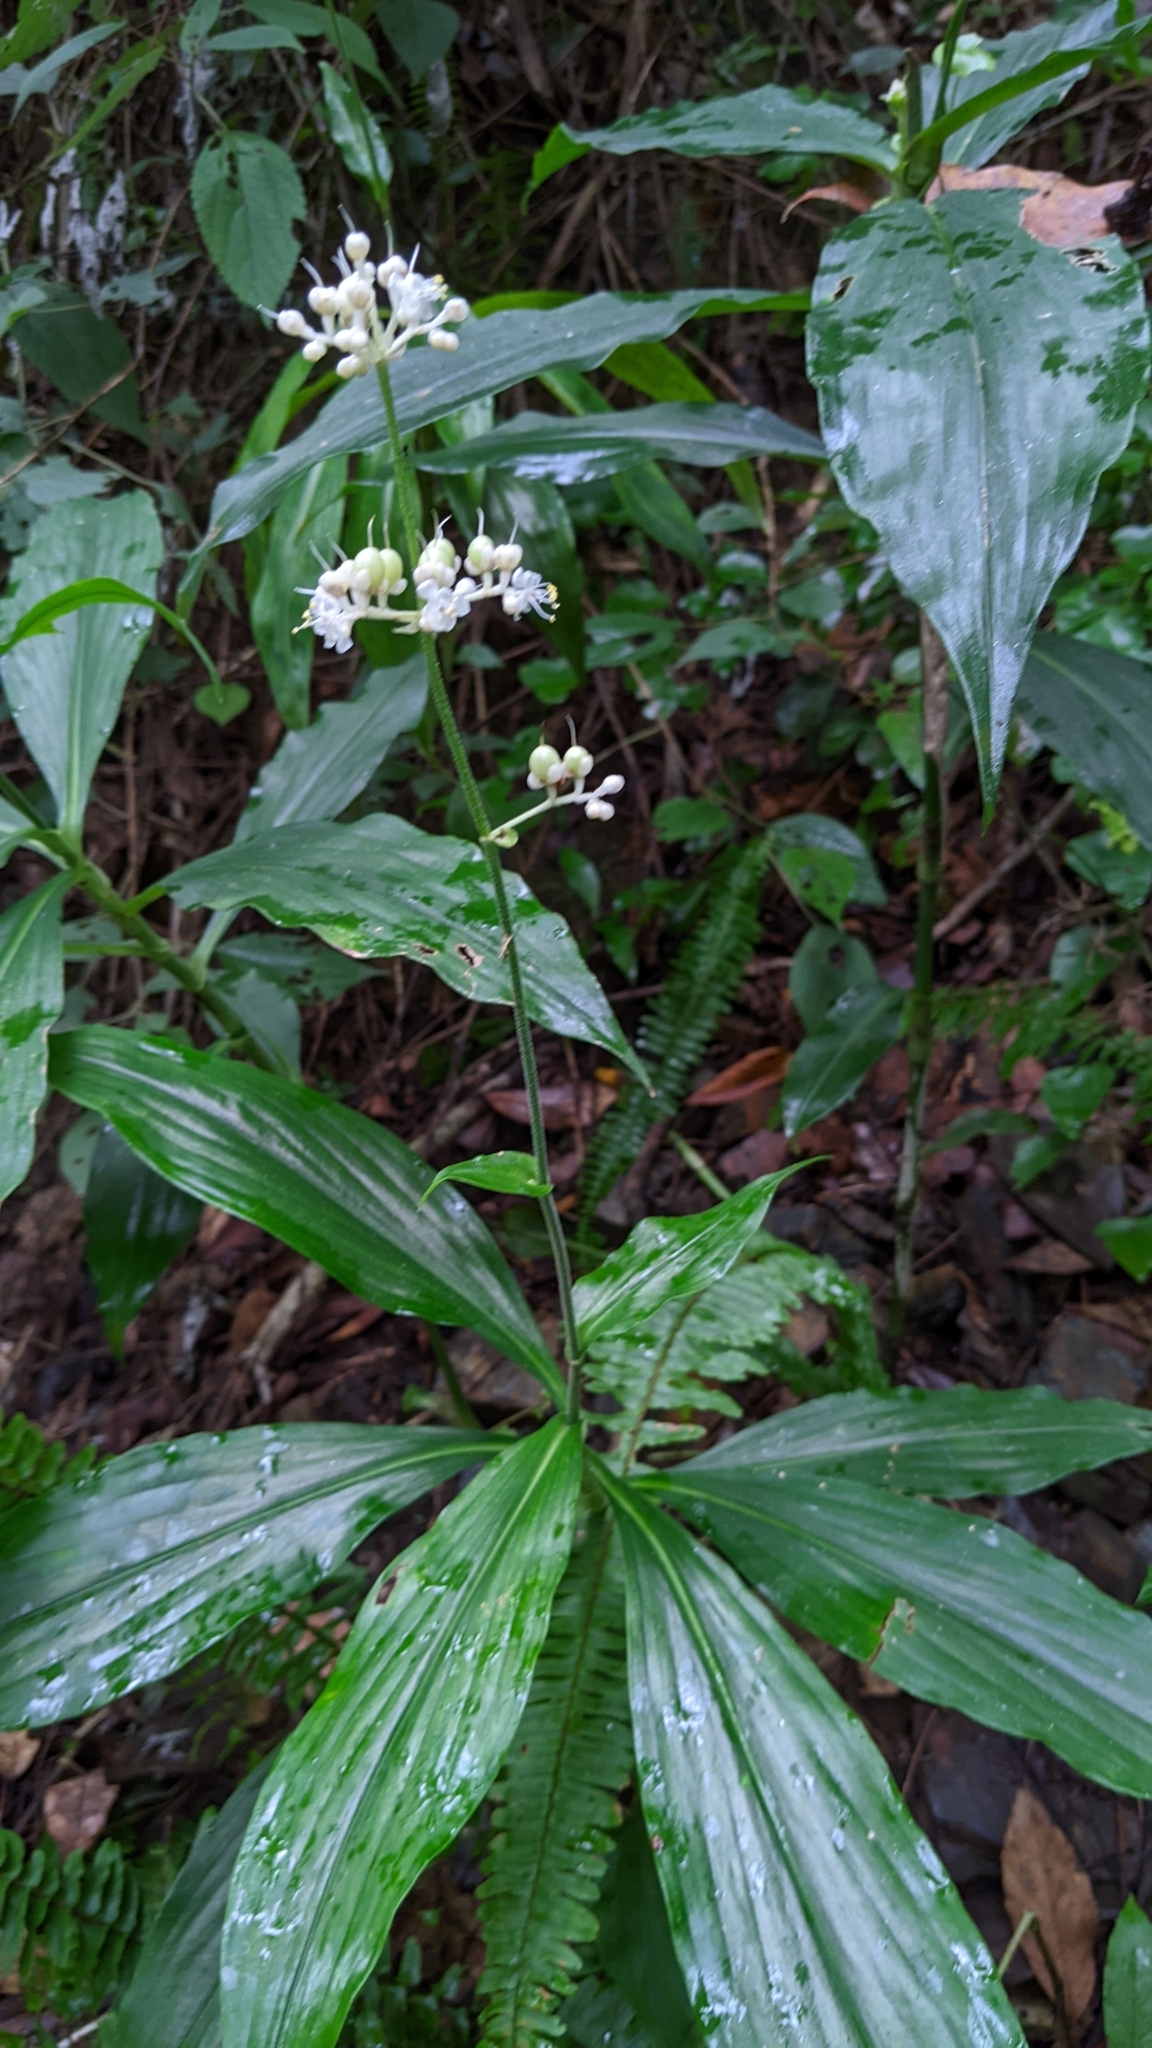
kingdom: Plantae
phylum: Tracheophyta
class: Liliopsida
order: Commelinales
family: Commelinaceae
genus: Pollia
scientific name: Pollia japonica
